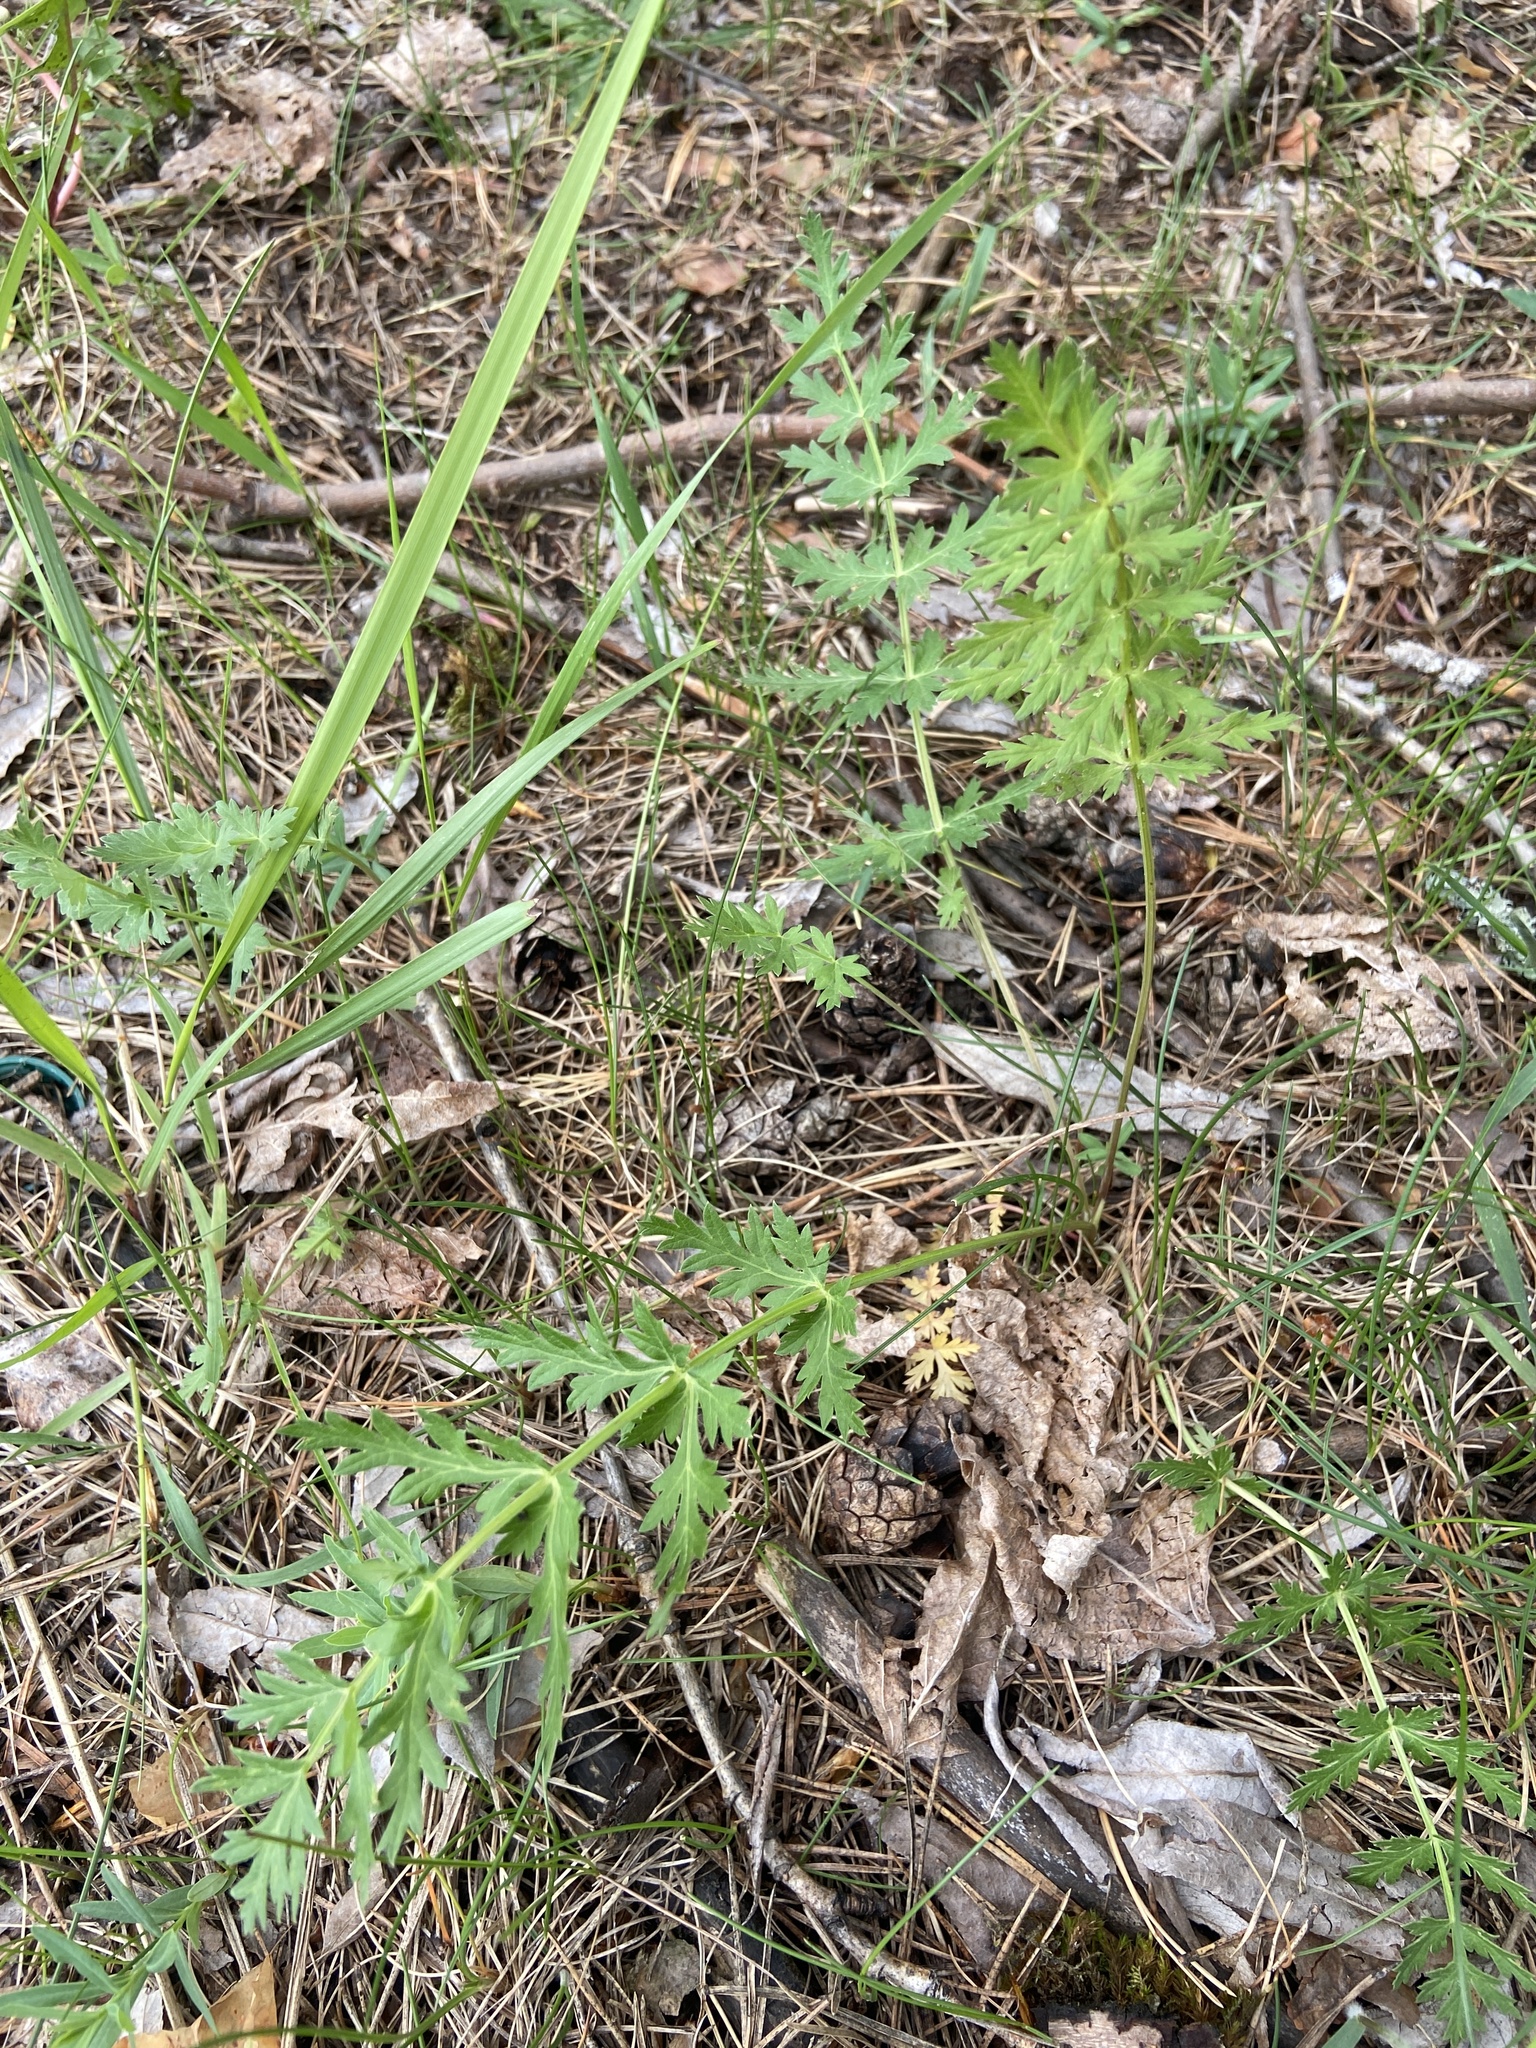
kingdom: Plantae
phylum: Tracheophyta
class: Magnoliopsida
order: Apiales
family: Apiaceae
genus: Seseli
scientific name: Seseli libanotis
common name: Mooncarrot
